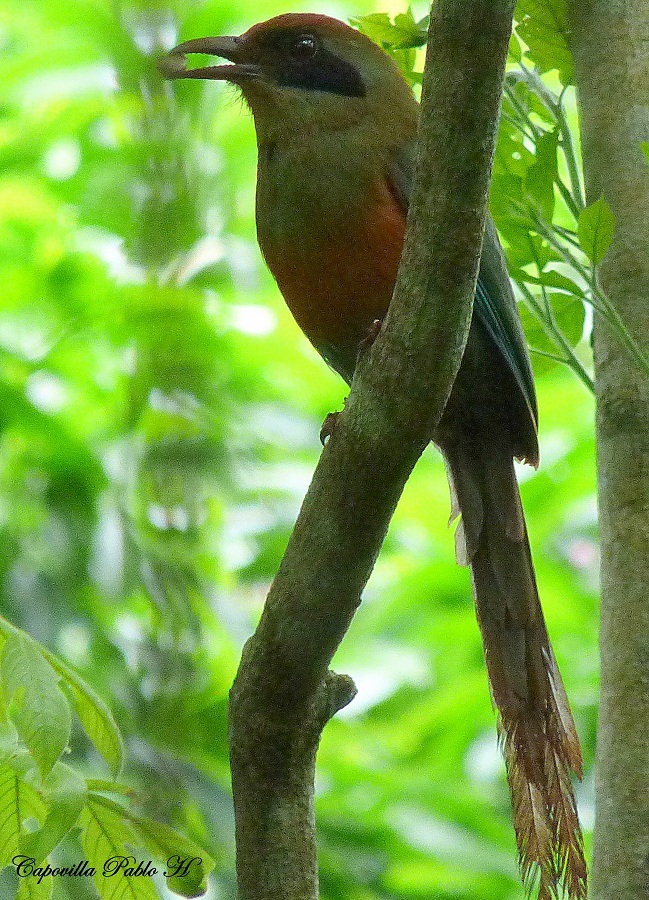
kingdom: Animalia
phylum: Chordata
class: Aves
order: Coraciiformes
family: Momotidae
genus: Baryphthengus
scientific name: Baryphthengus ruficapillus
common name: Rufous-capped motmot
